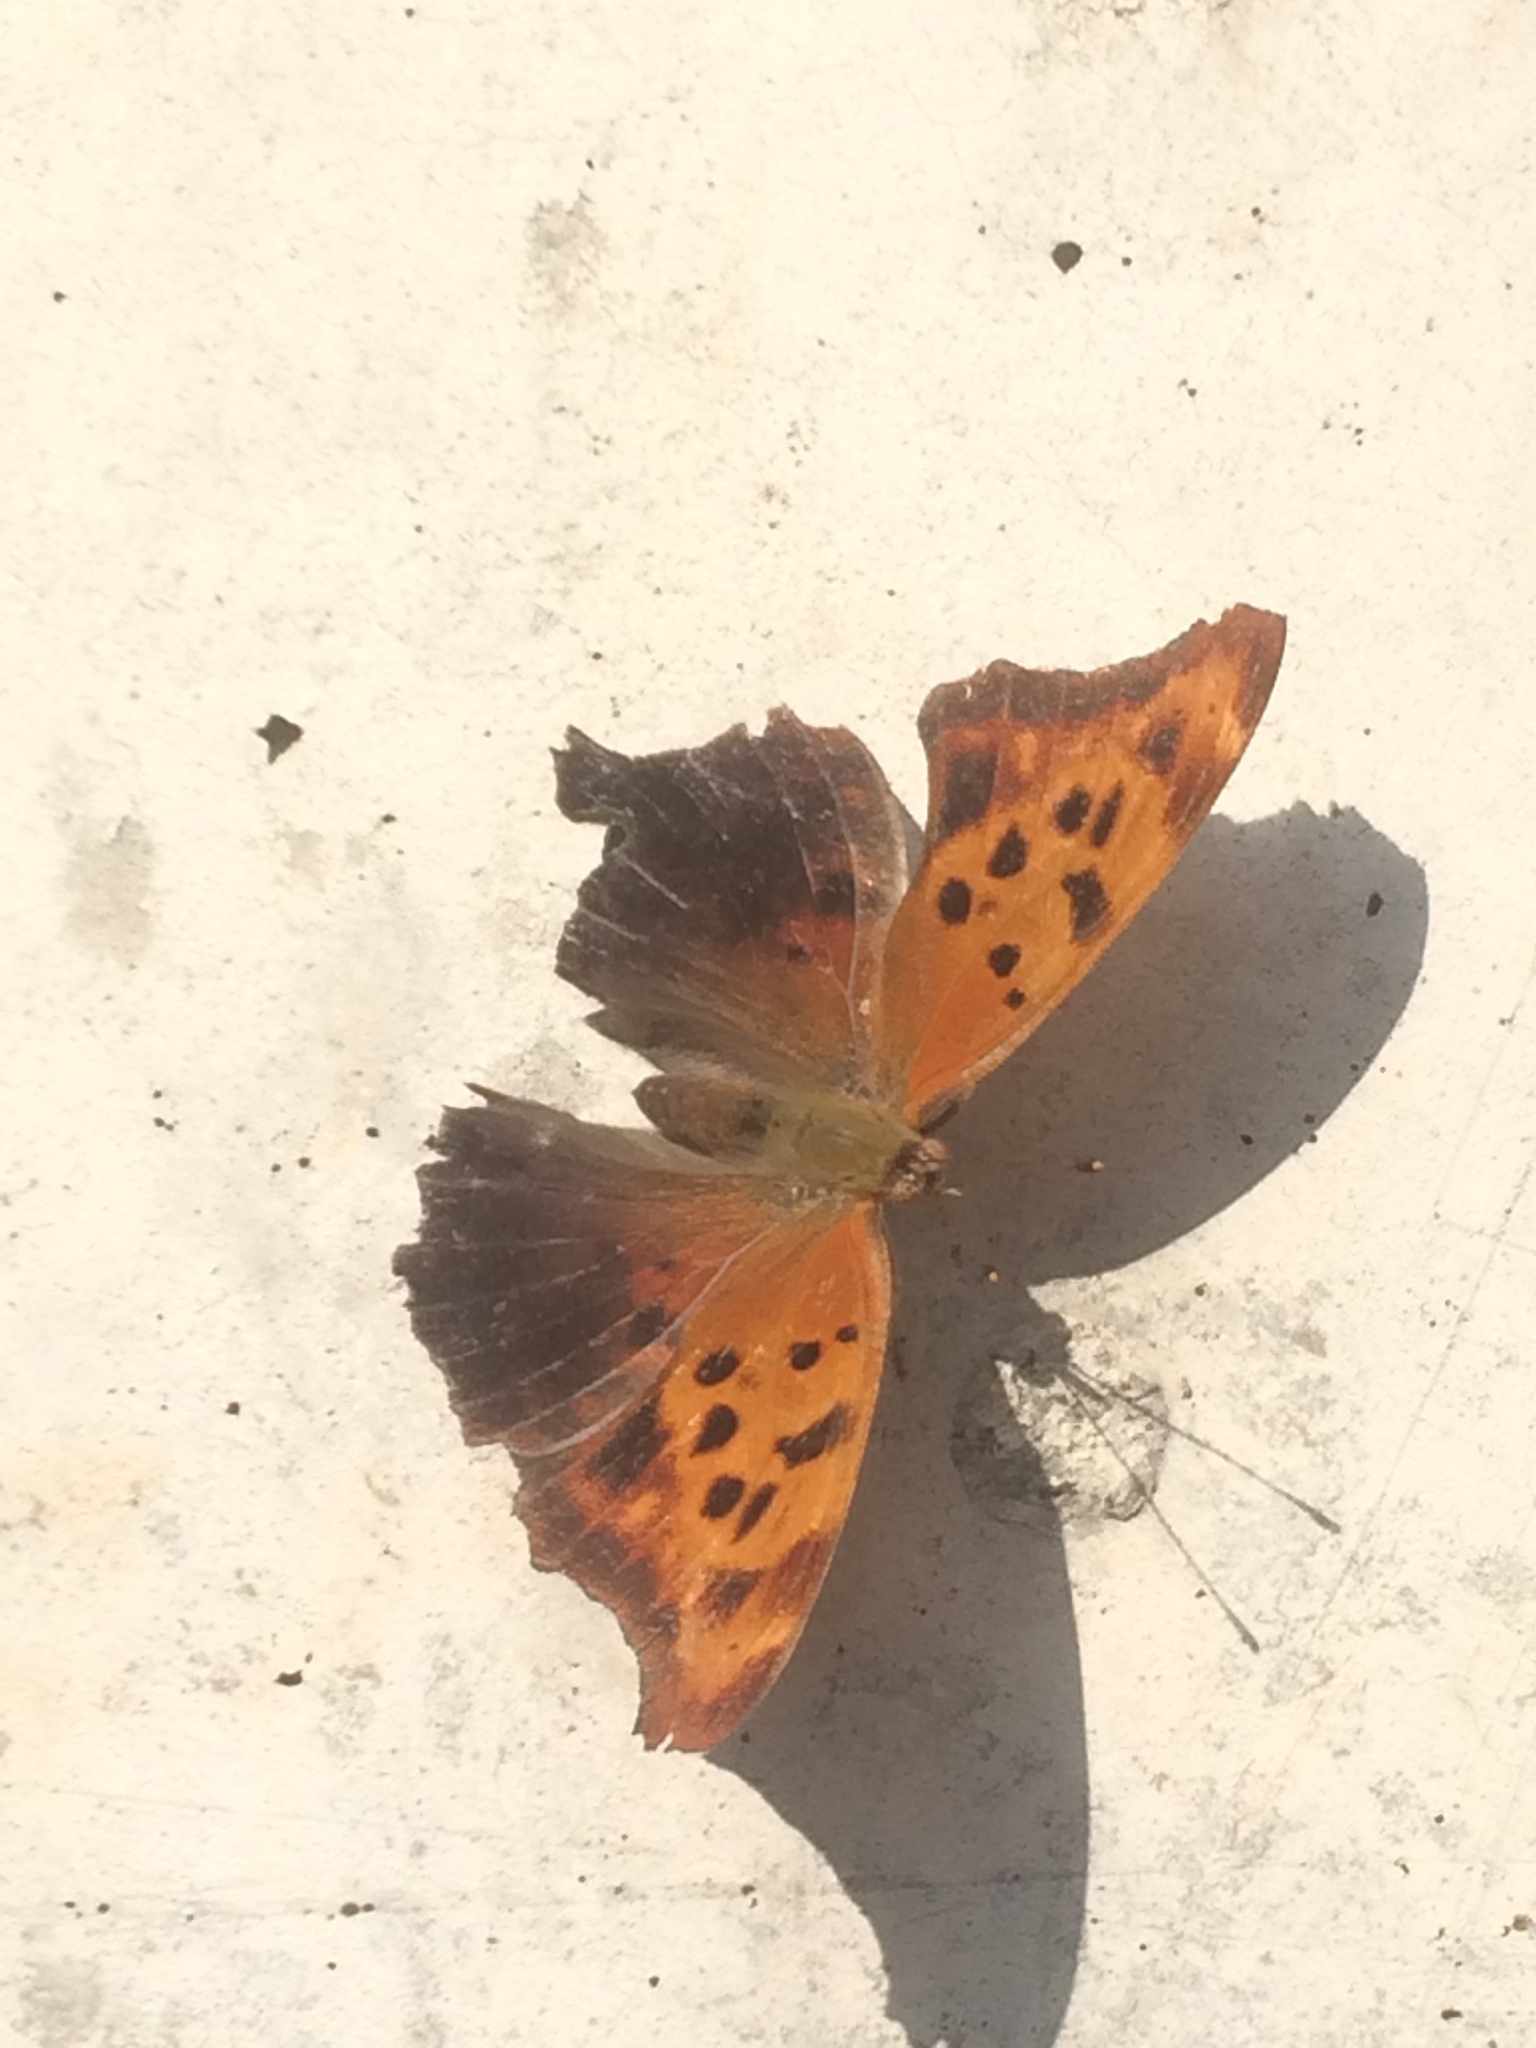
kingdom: Animalia
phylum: Arthropoda
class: Insecta
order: Lepidoptera
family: Nymphalidae
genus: Polygonia
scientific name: Polygonia interrogationis
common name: Question mark
